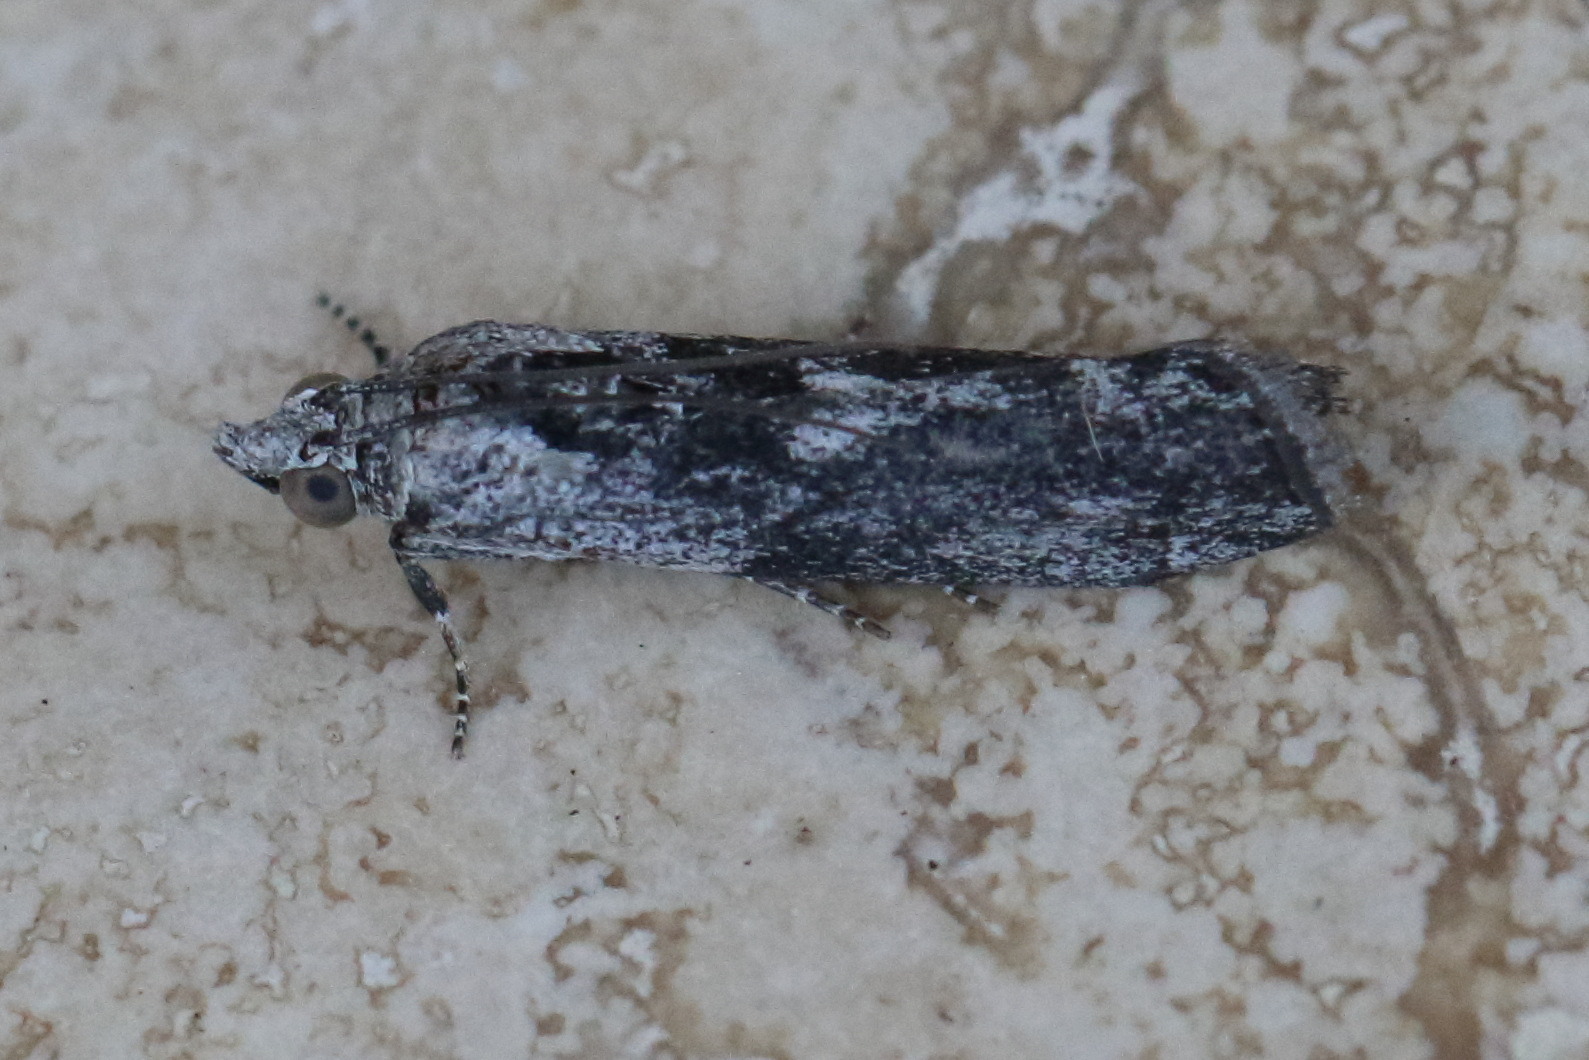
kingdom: Animalia
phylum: Arthropoda
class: Insecta
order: Lepidoptera
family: Pyralidae
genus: Sciota
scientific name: Sciota
